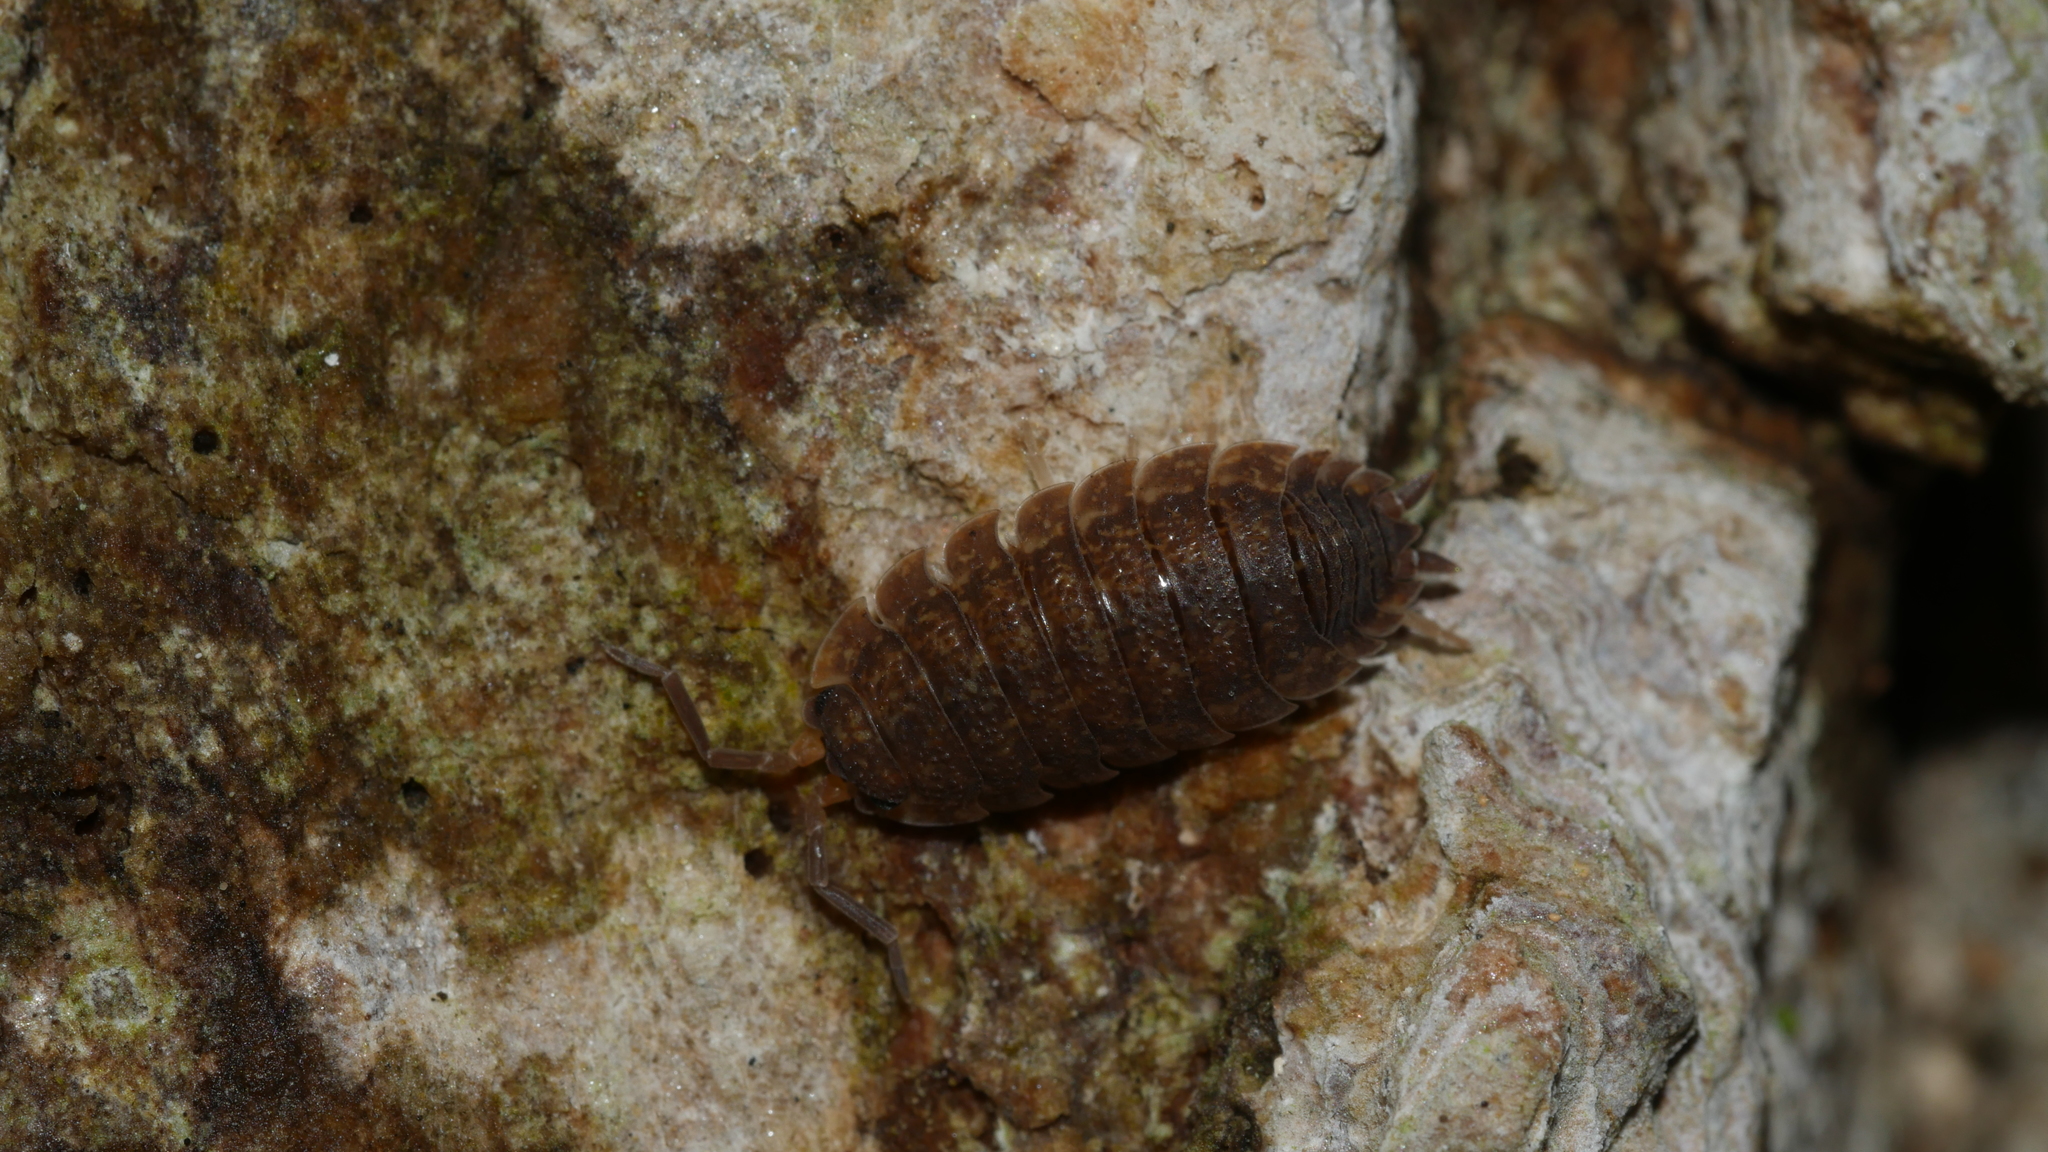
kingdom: Animalia
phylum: Arthropoda
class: Malacostraca
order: Isopoda
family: Porcellionidae
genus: Porcellio
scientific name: Porcellio scaber
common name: Common rough woodlouse
